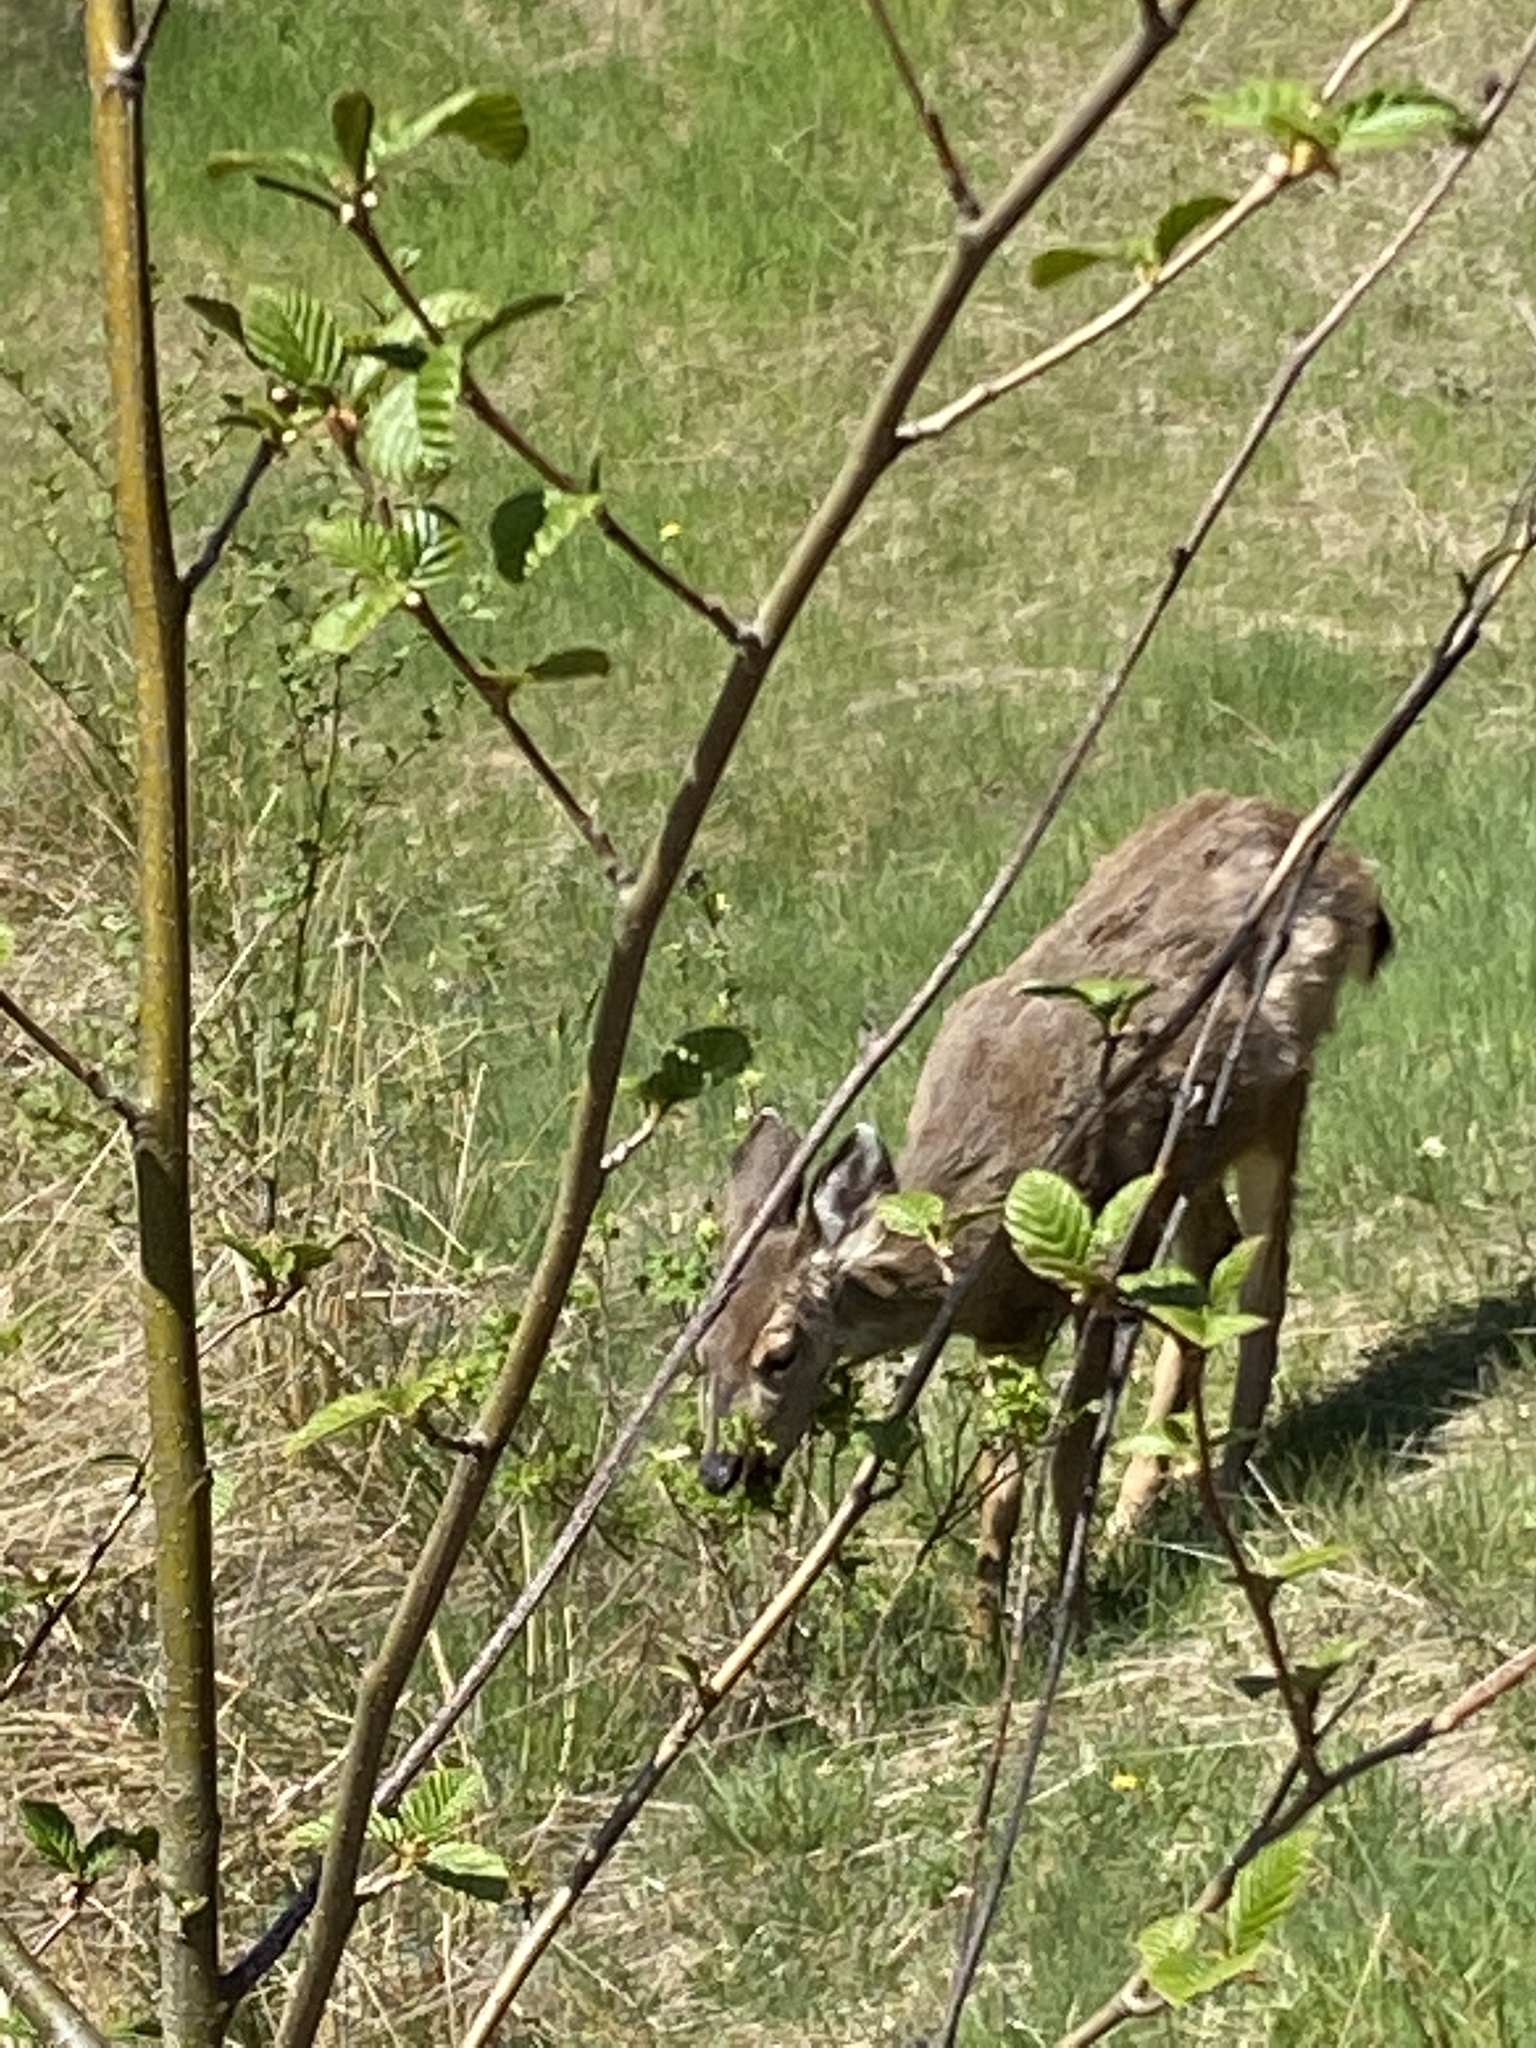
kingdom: Animalia
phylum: Chordata
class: Mammalia
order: Artiodactyla
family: Cervidae
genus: Odocoileus
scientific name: Odocoileus hemionus
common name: Mule deer
